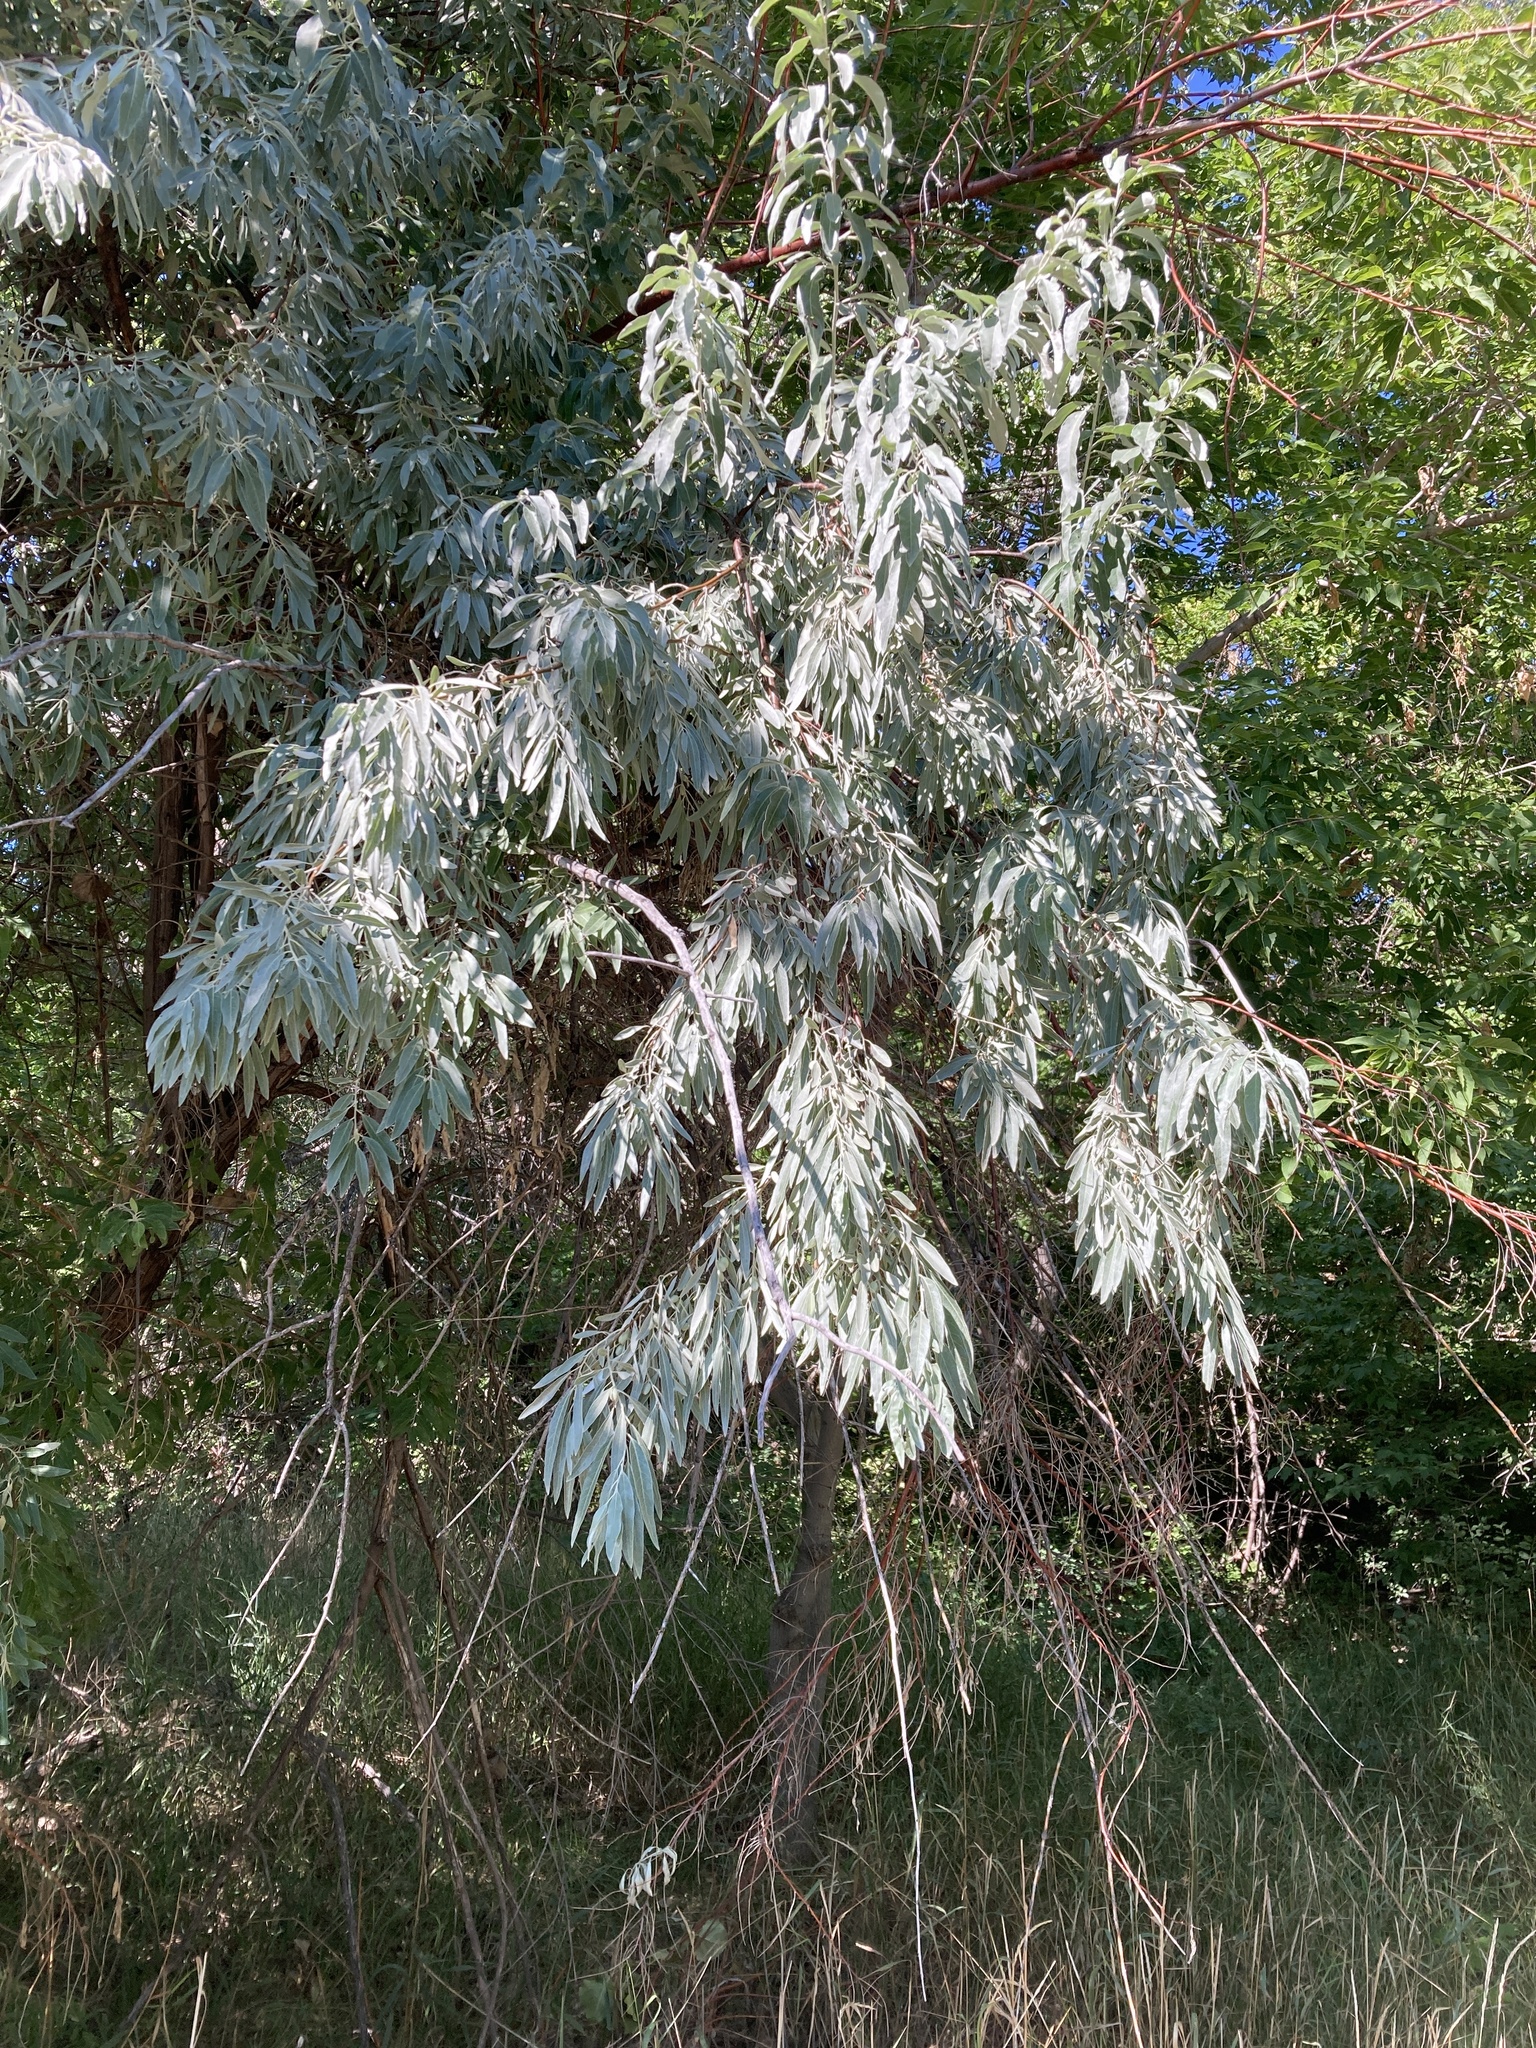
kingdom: Plantae
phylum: Tracheophyta
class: Magnoliopsida
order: Rosales
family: Elaeagnaceae
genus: Elaeagnus
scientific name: Elaeagnus angustifolia
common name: Russian olive
